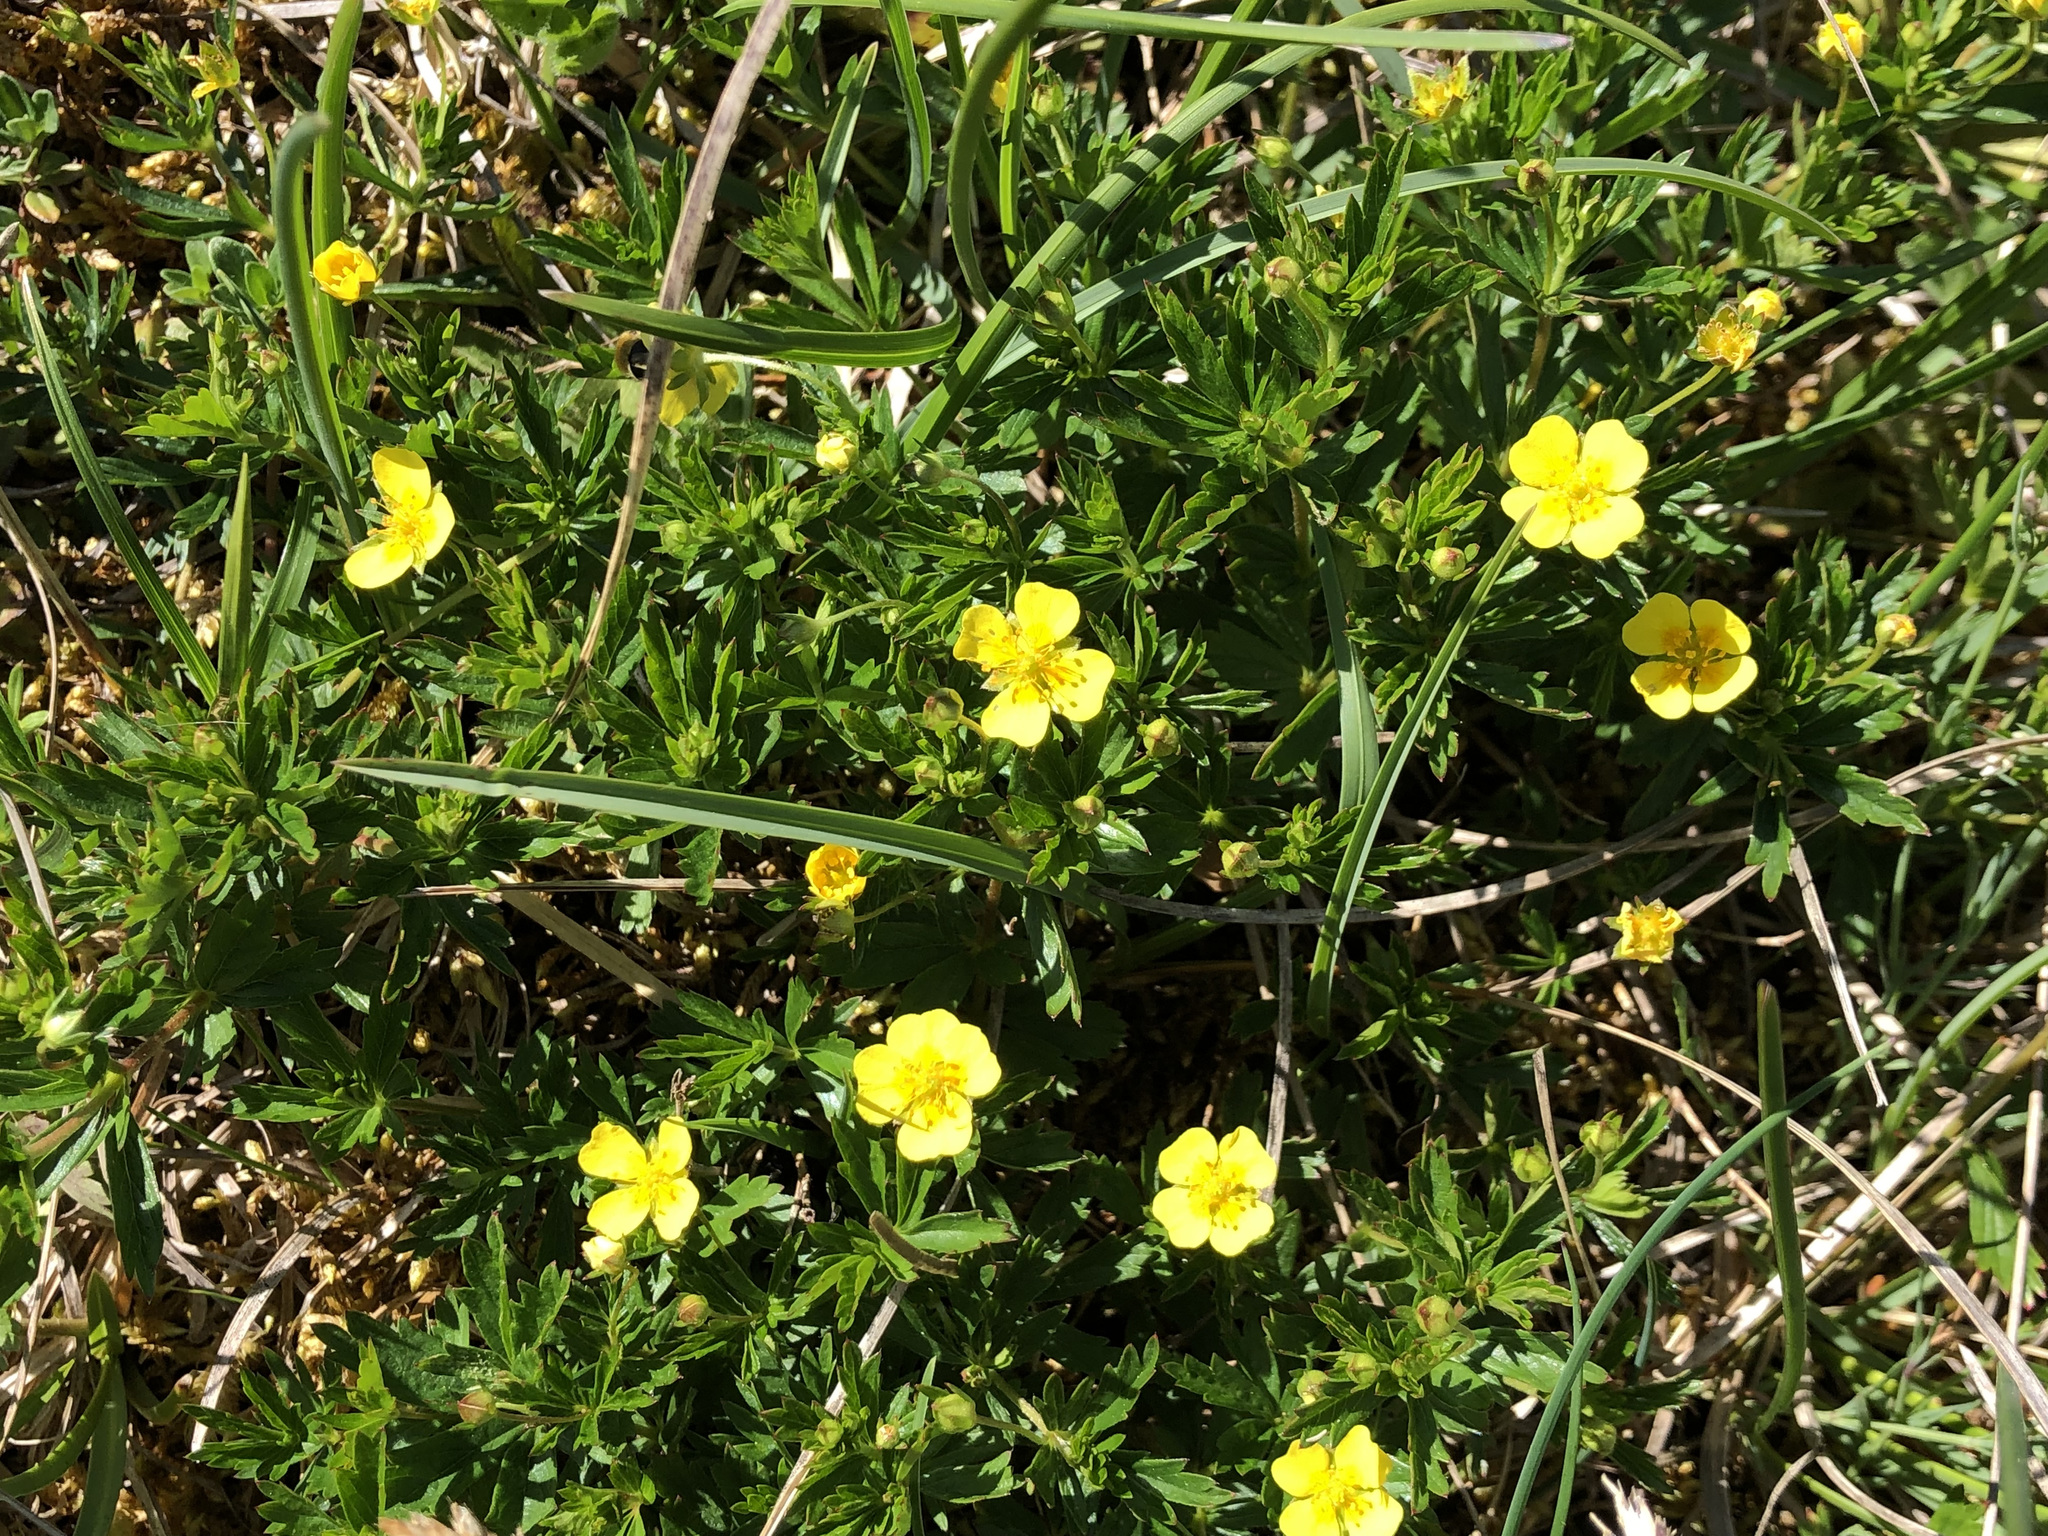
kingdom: Plantae
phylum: Tracheophyta
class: Magnoliopsida
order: Rosales
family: Rosaceae
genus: Potentilla
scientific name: Potentilla erecta
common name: Tormentil
